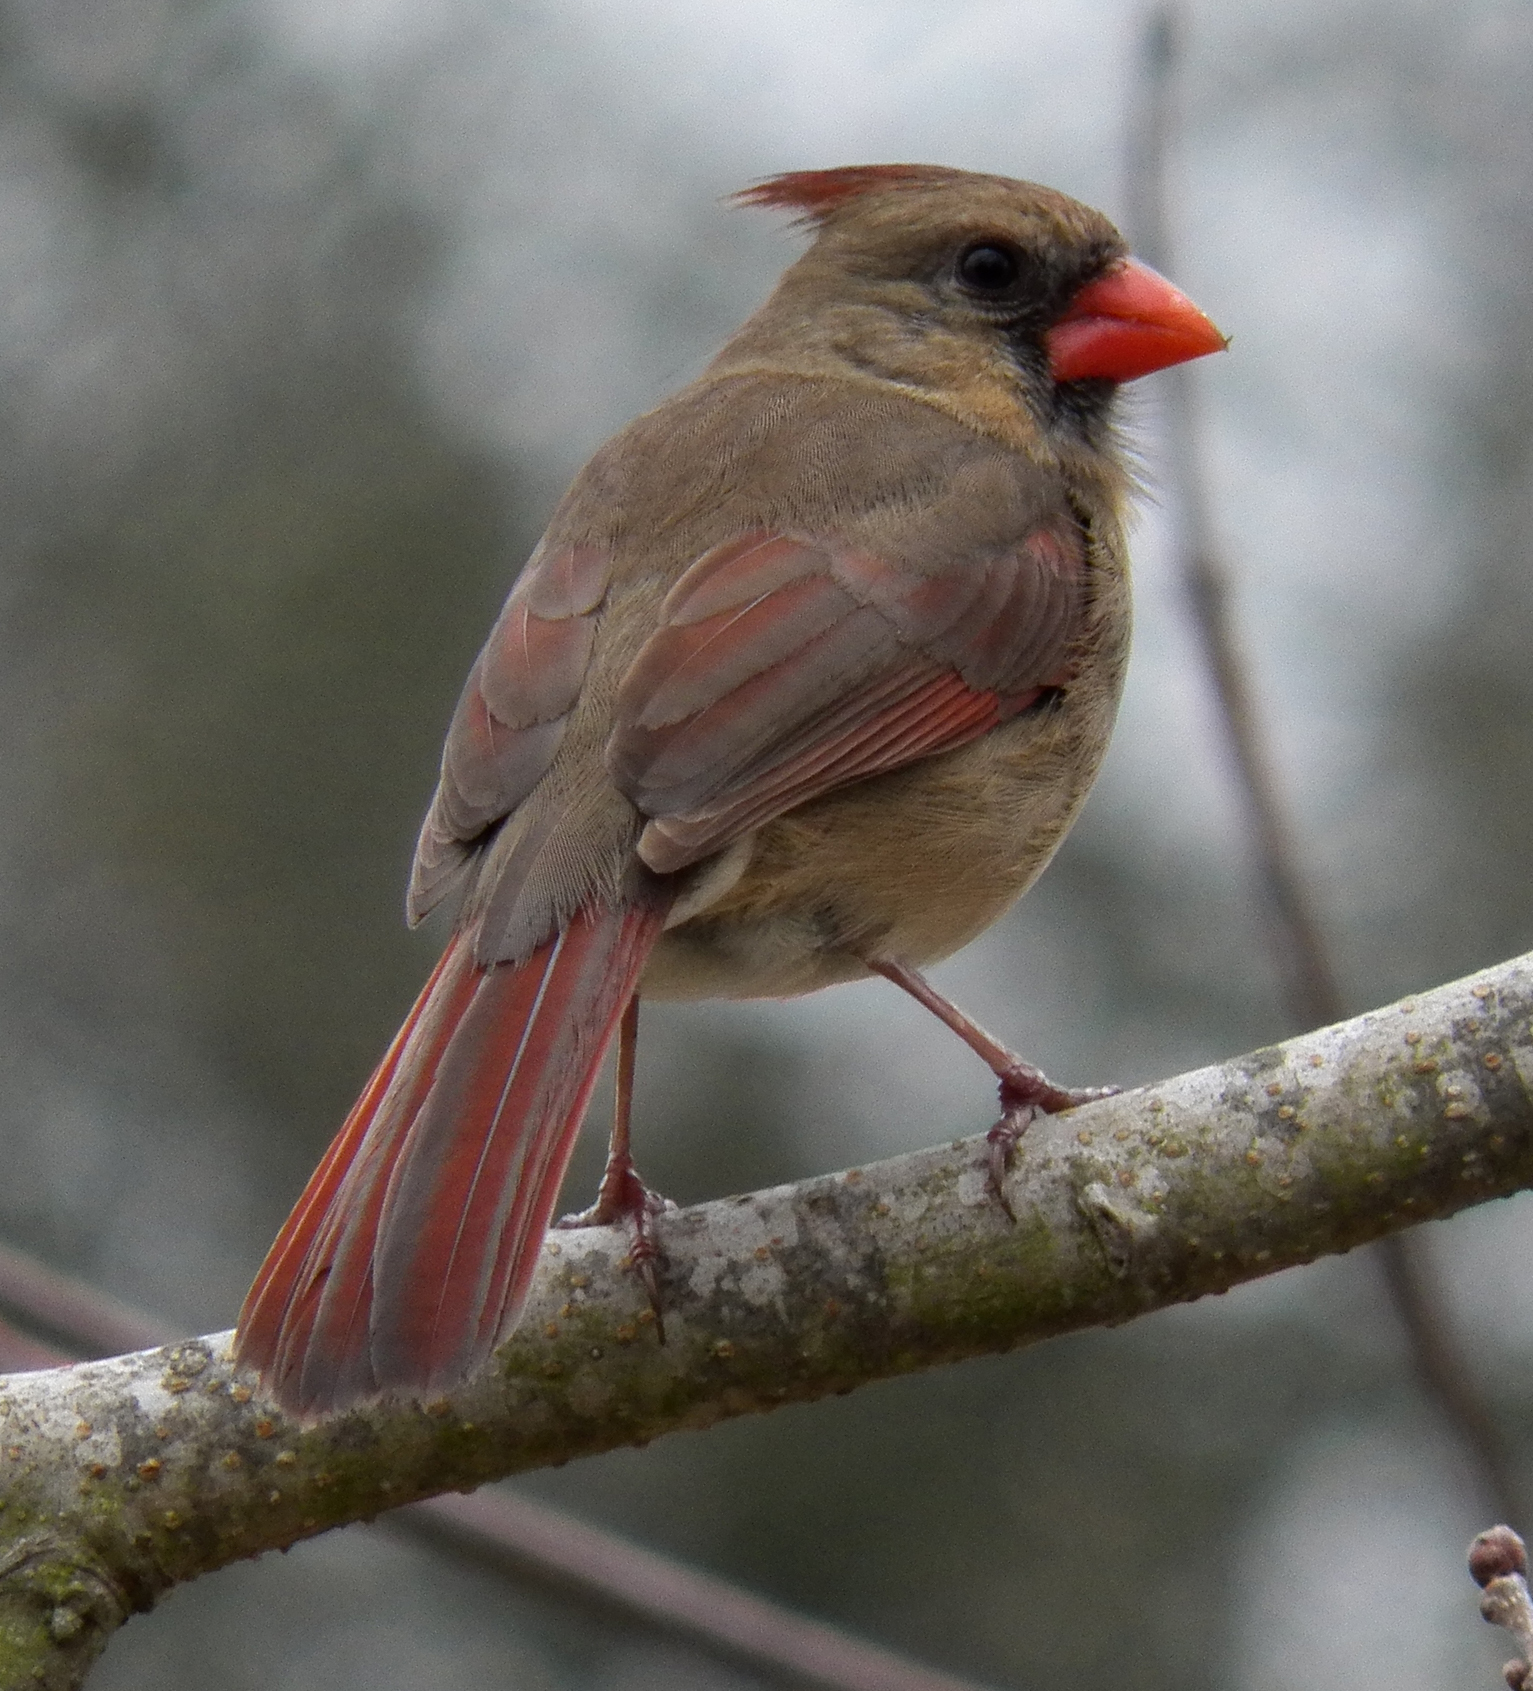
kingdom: Animalia
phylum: Chordata
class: Aves
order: Passeriformes
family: Cardinalidae
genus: Cardinalis
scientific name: Cardinalis cardinalis
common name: Northern cardinal
